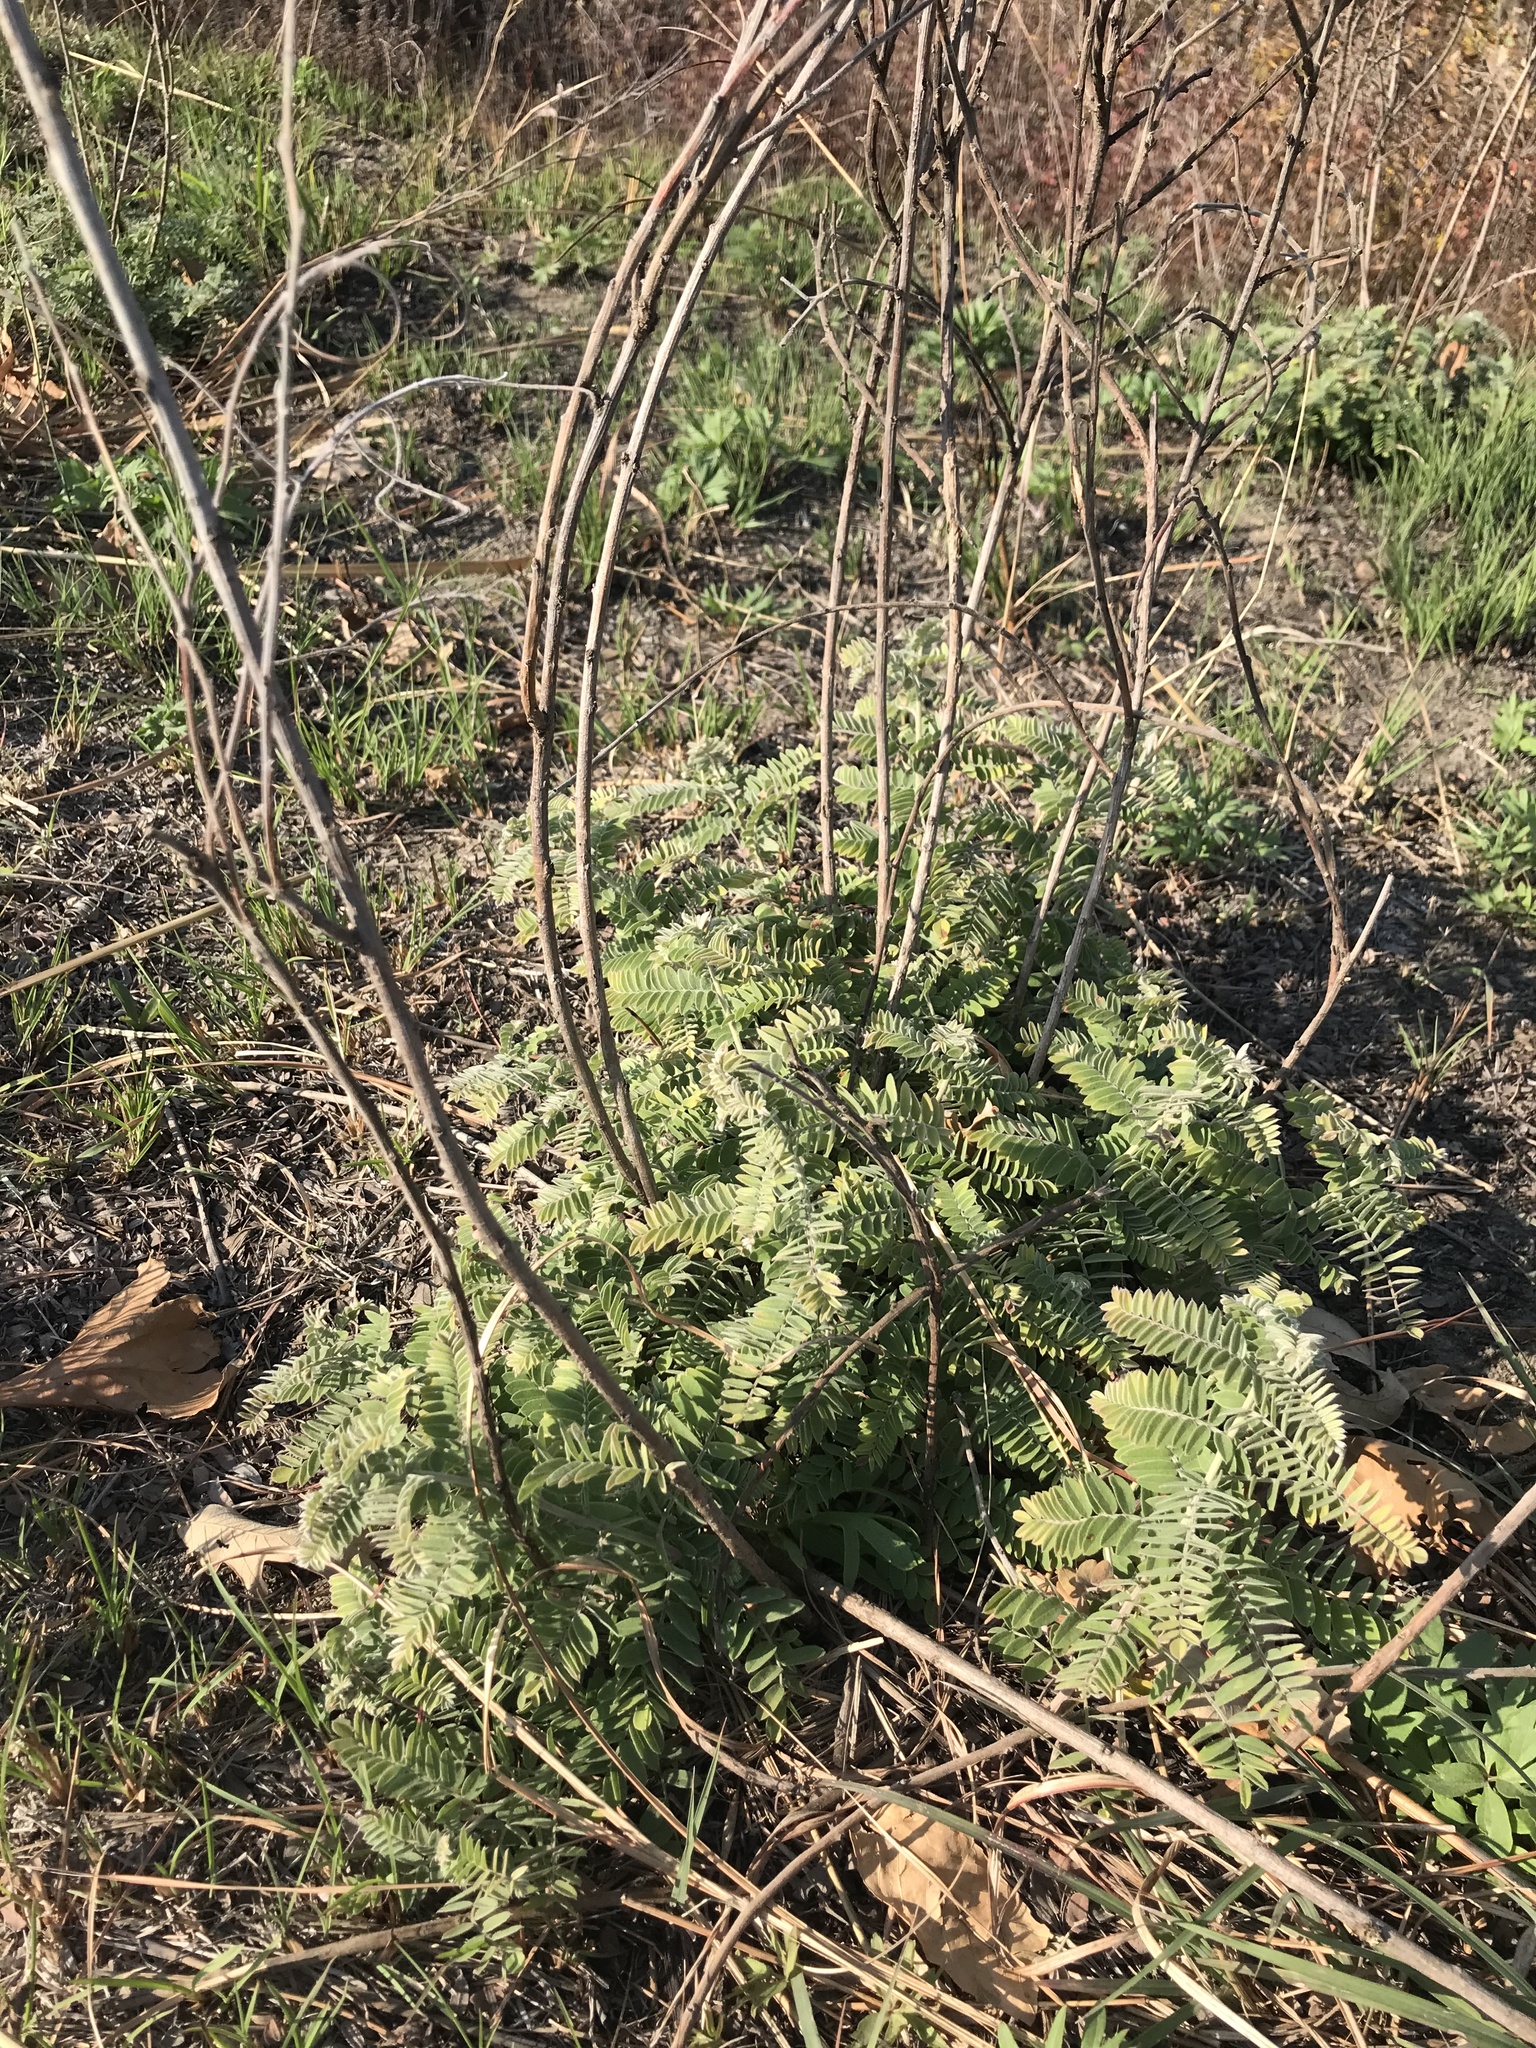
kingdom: Plantae
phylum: Tracheophyta
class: Magnoliopsida
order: Fabales
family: Fabaceae
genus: Amorpha
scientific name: Amorpha canescens
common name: Leadplant
